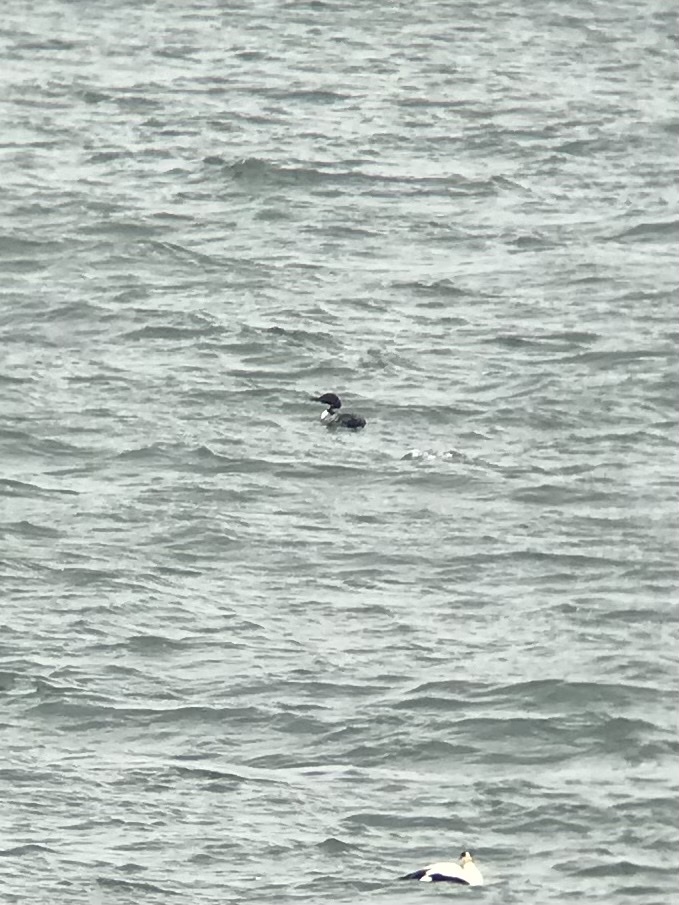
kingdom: Animalia
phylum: Chordata
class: Aves
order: Gaviiformes
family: Gaviidae
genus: Gavia
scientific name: Gavia immer
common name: Common loon
